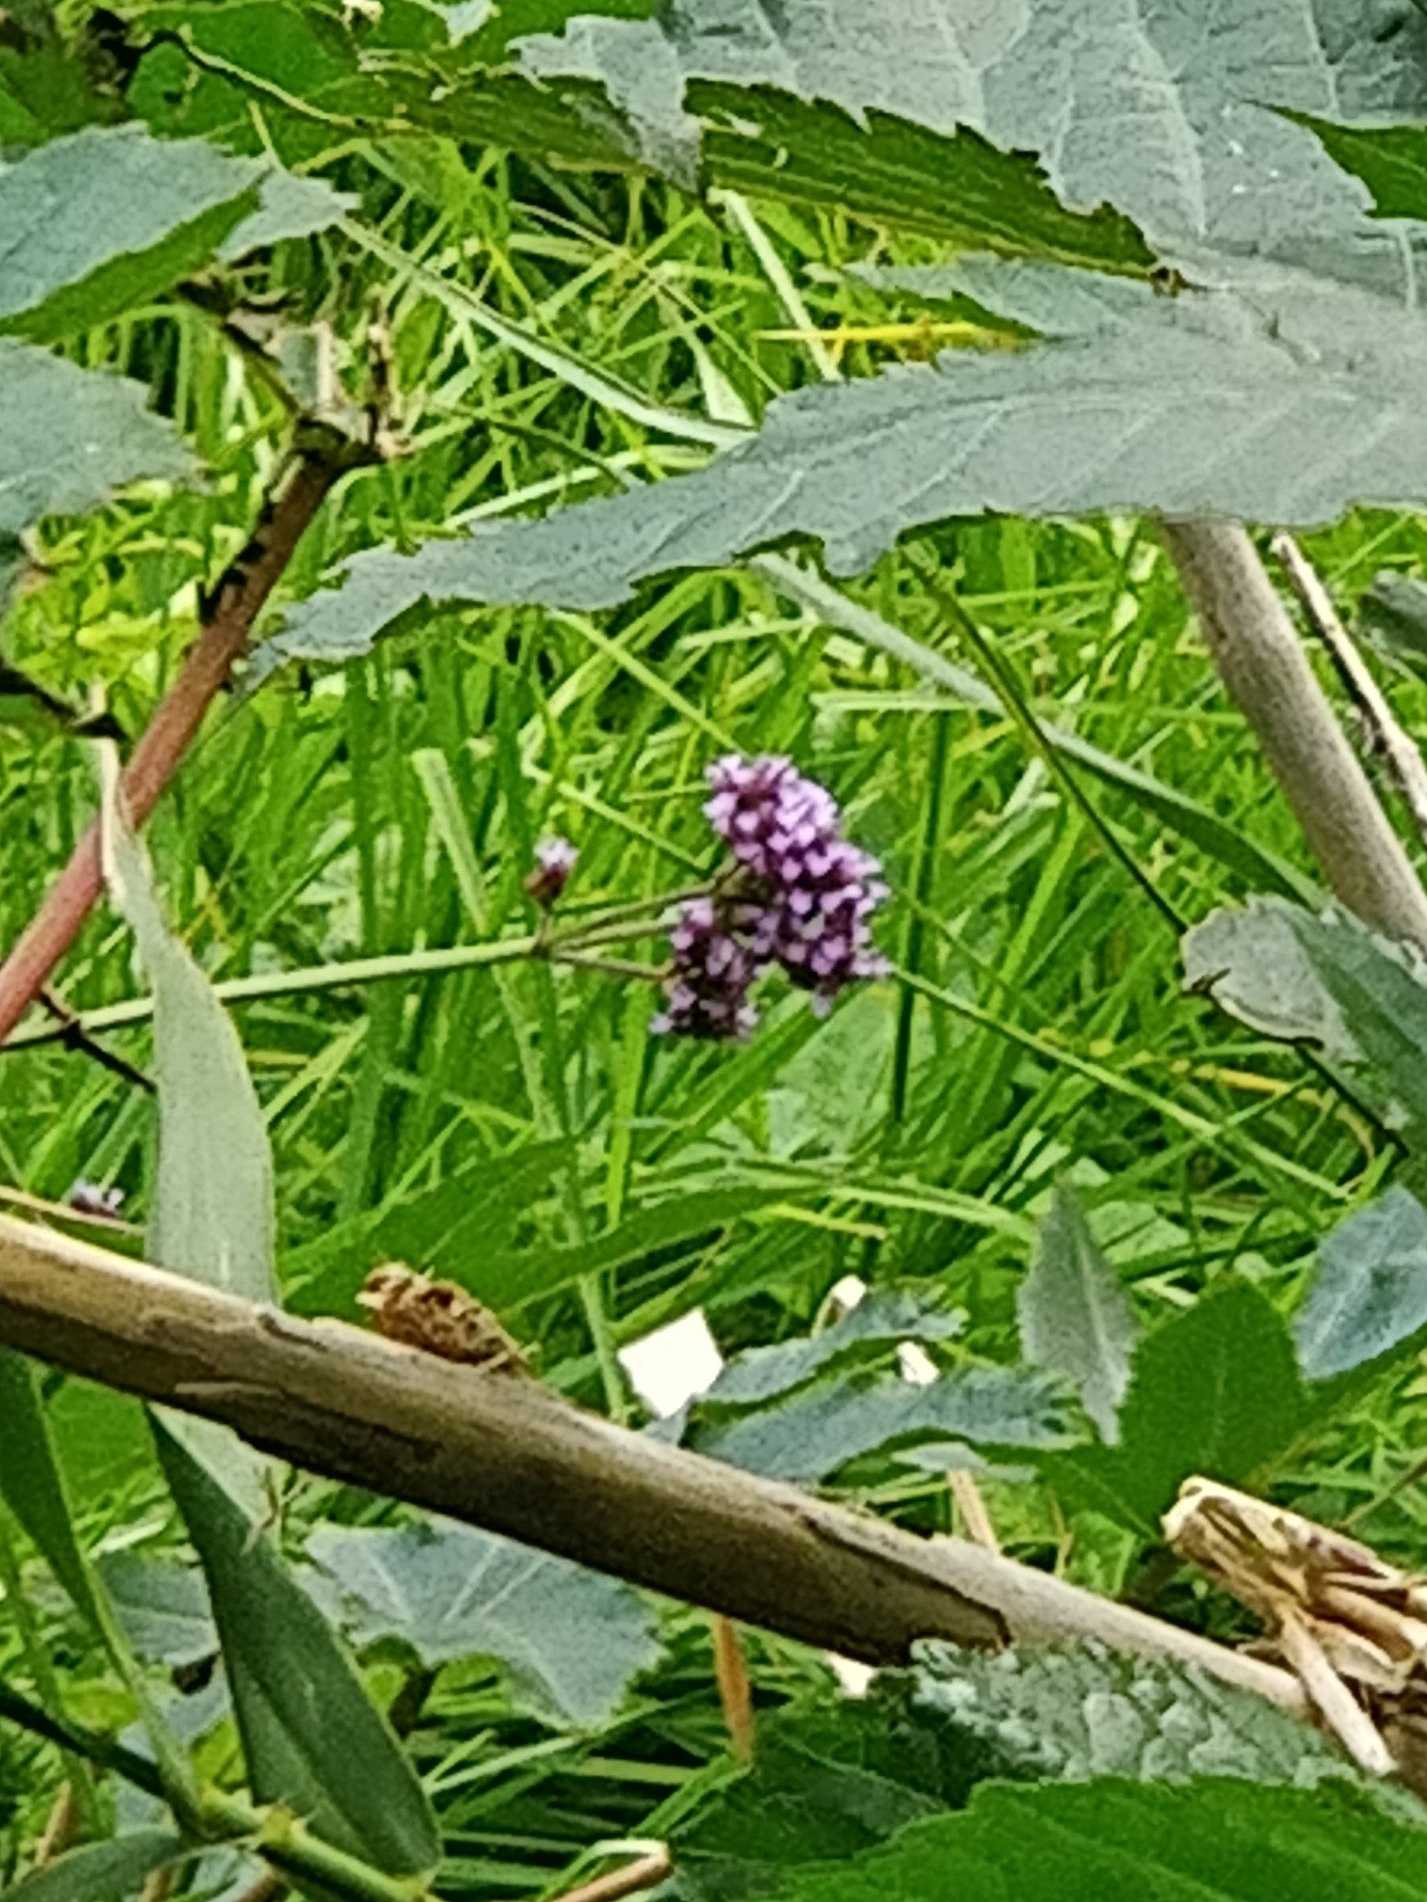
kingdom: Plantae
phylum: Tracheophyta
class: Magnoliopsida
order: Lamiales
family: Verbenaceae
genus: Verbena
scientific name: Verbena bonariensis
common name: Purpletop vervain
